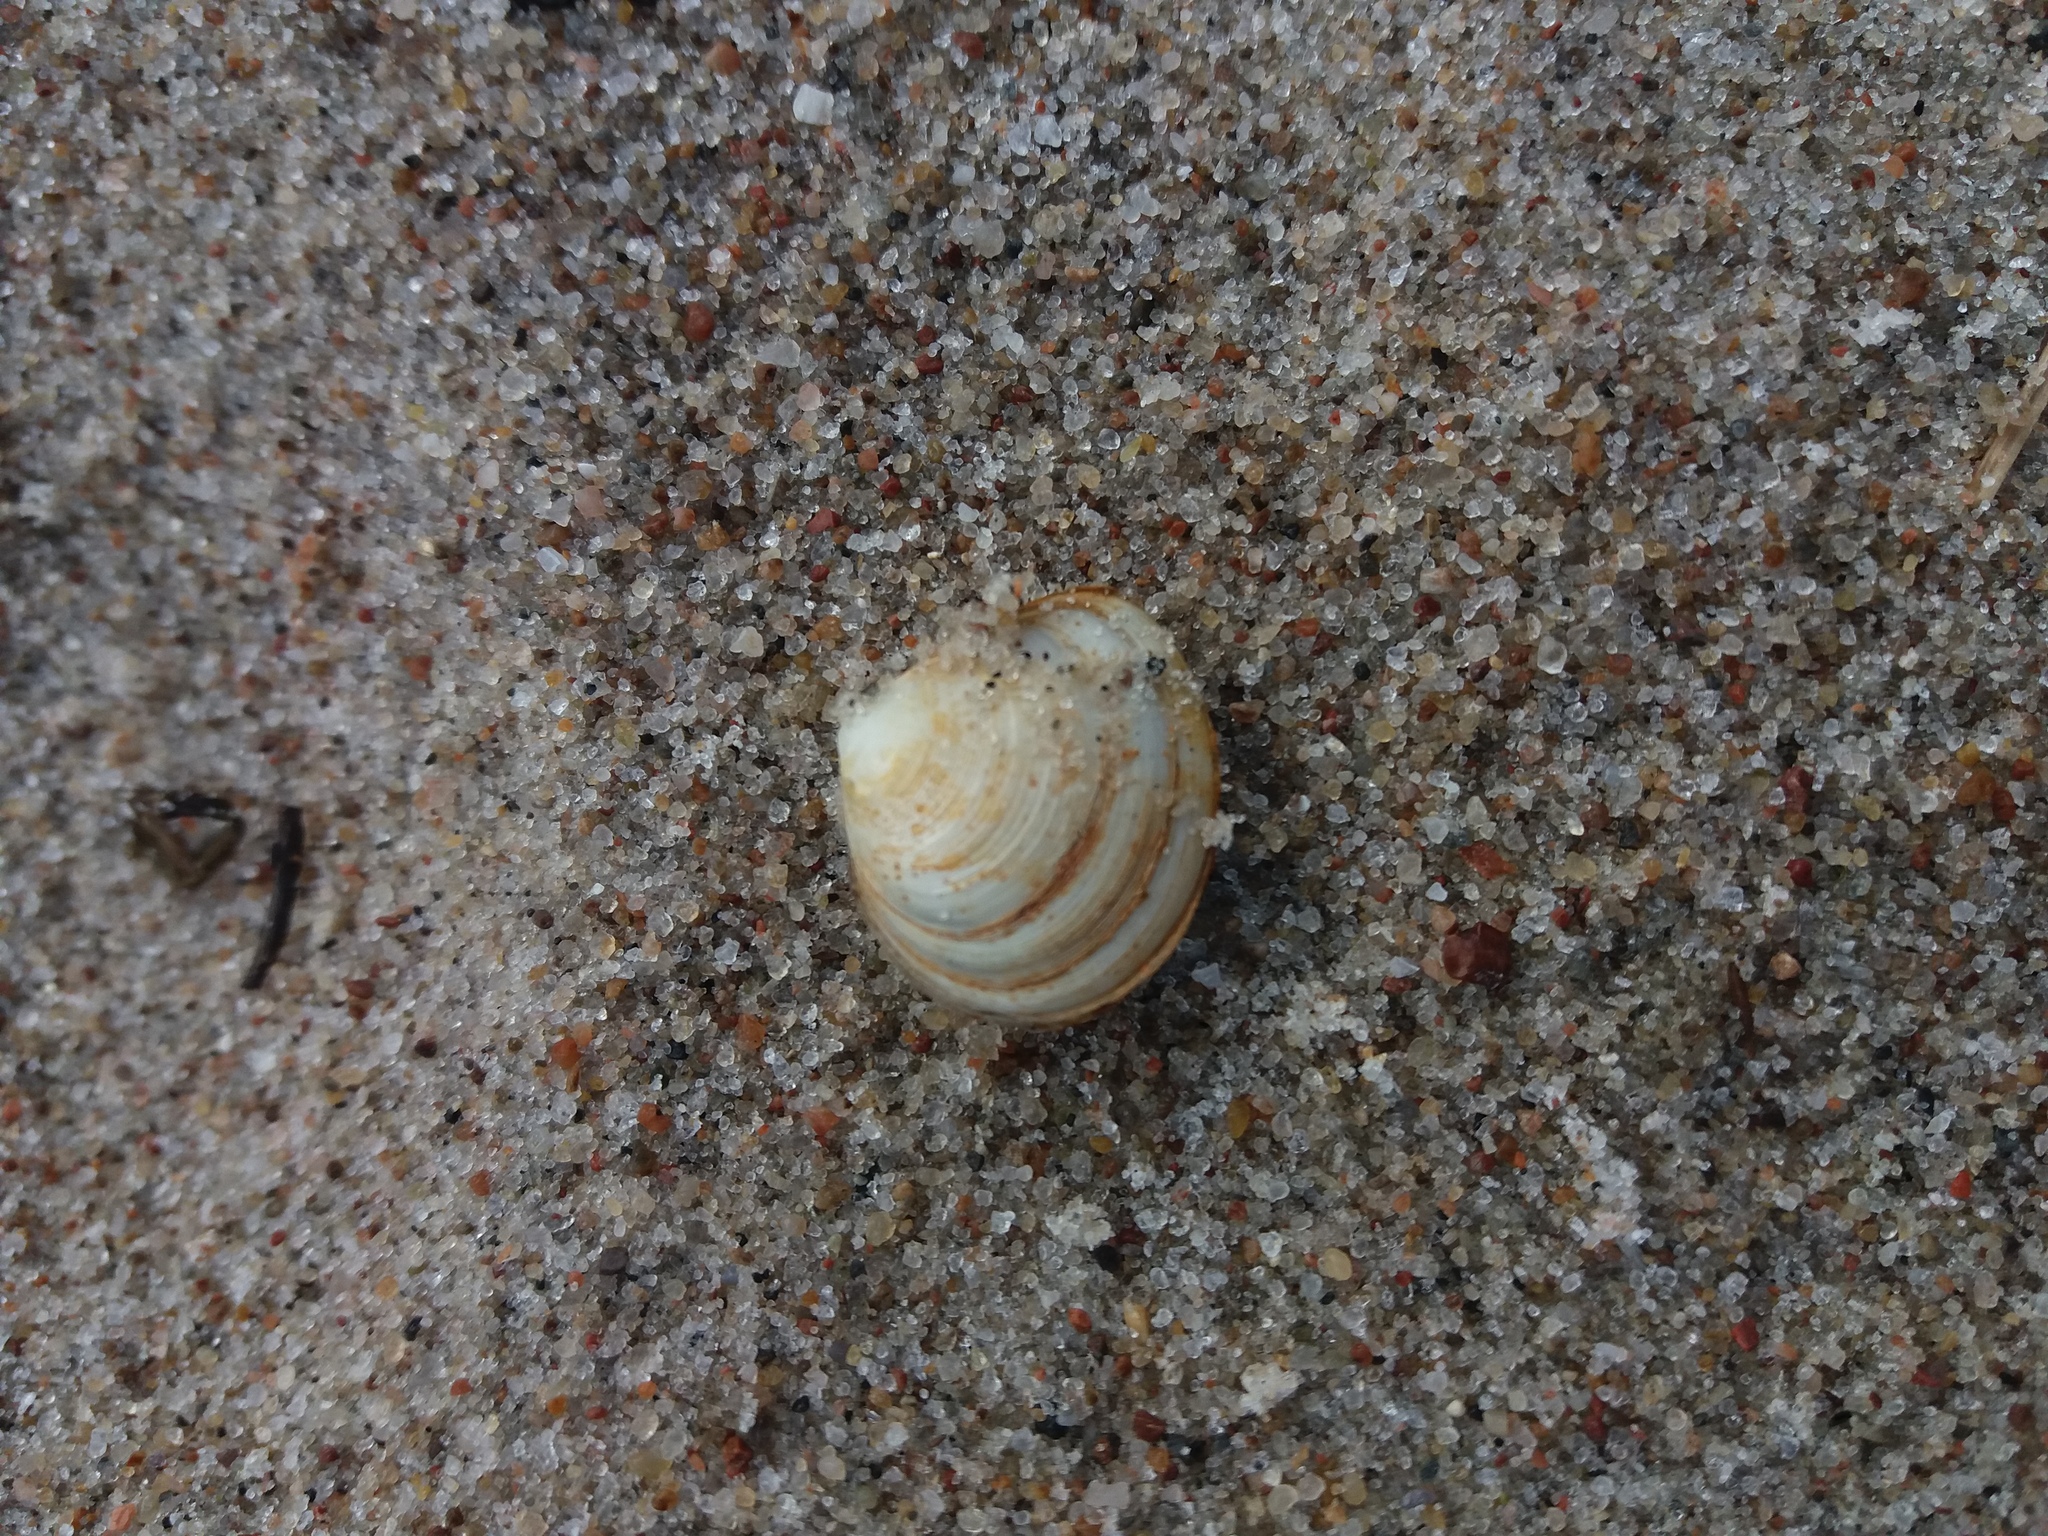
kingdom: Animalia
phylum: Mollusca
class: Bivalvia
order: Cardiida
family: Tellinidae
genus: Macoma
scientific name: Macoma balthica
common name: Baltic tellin
